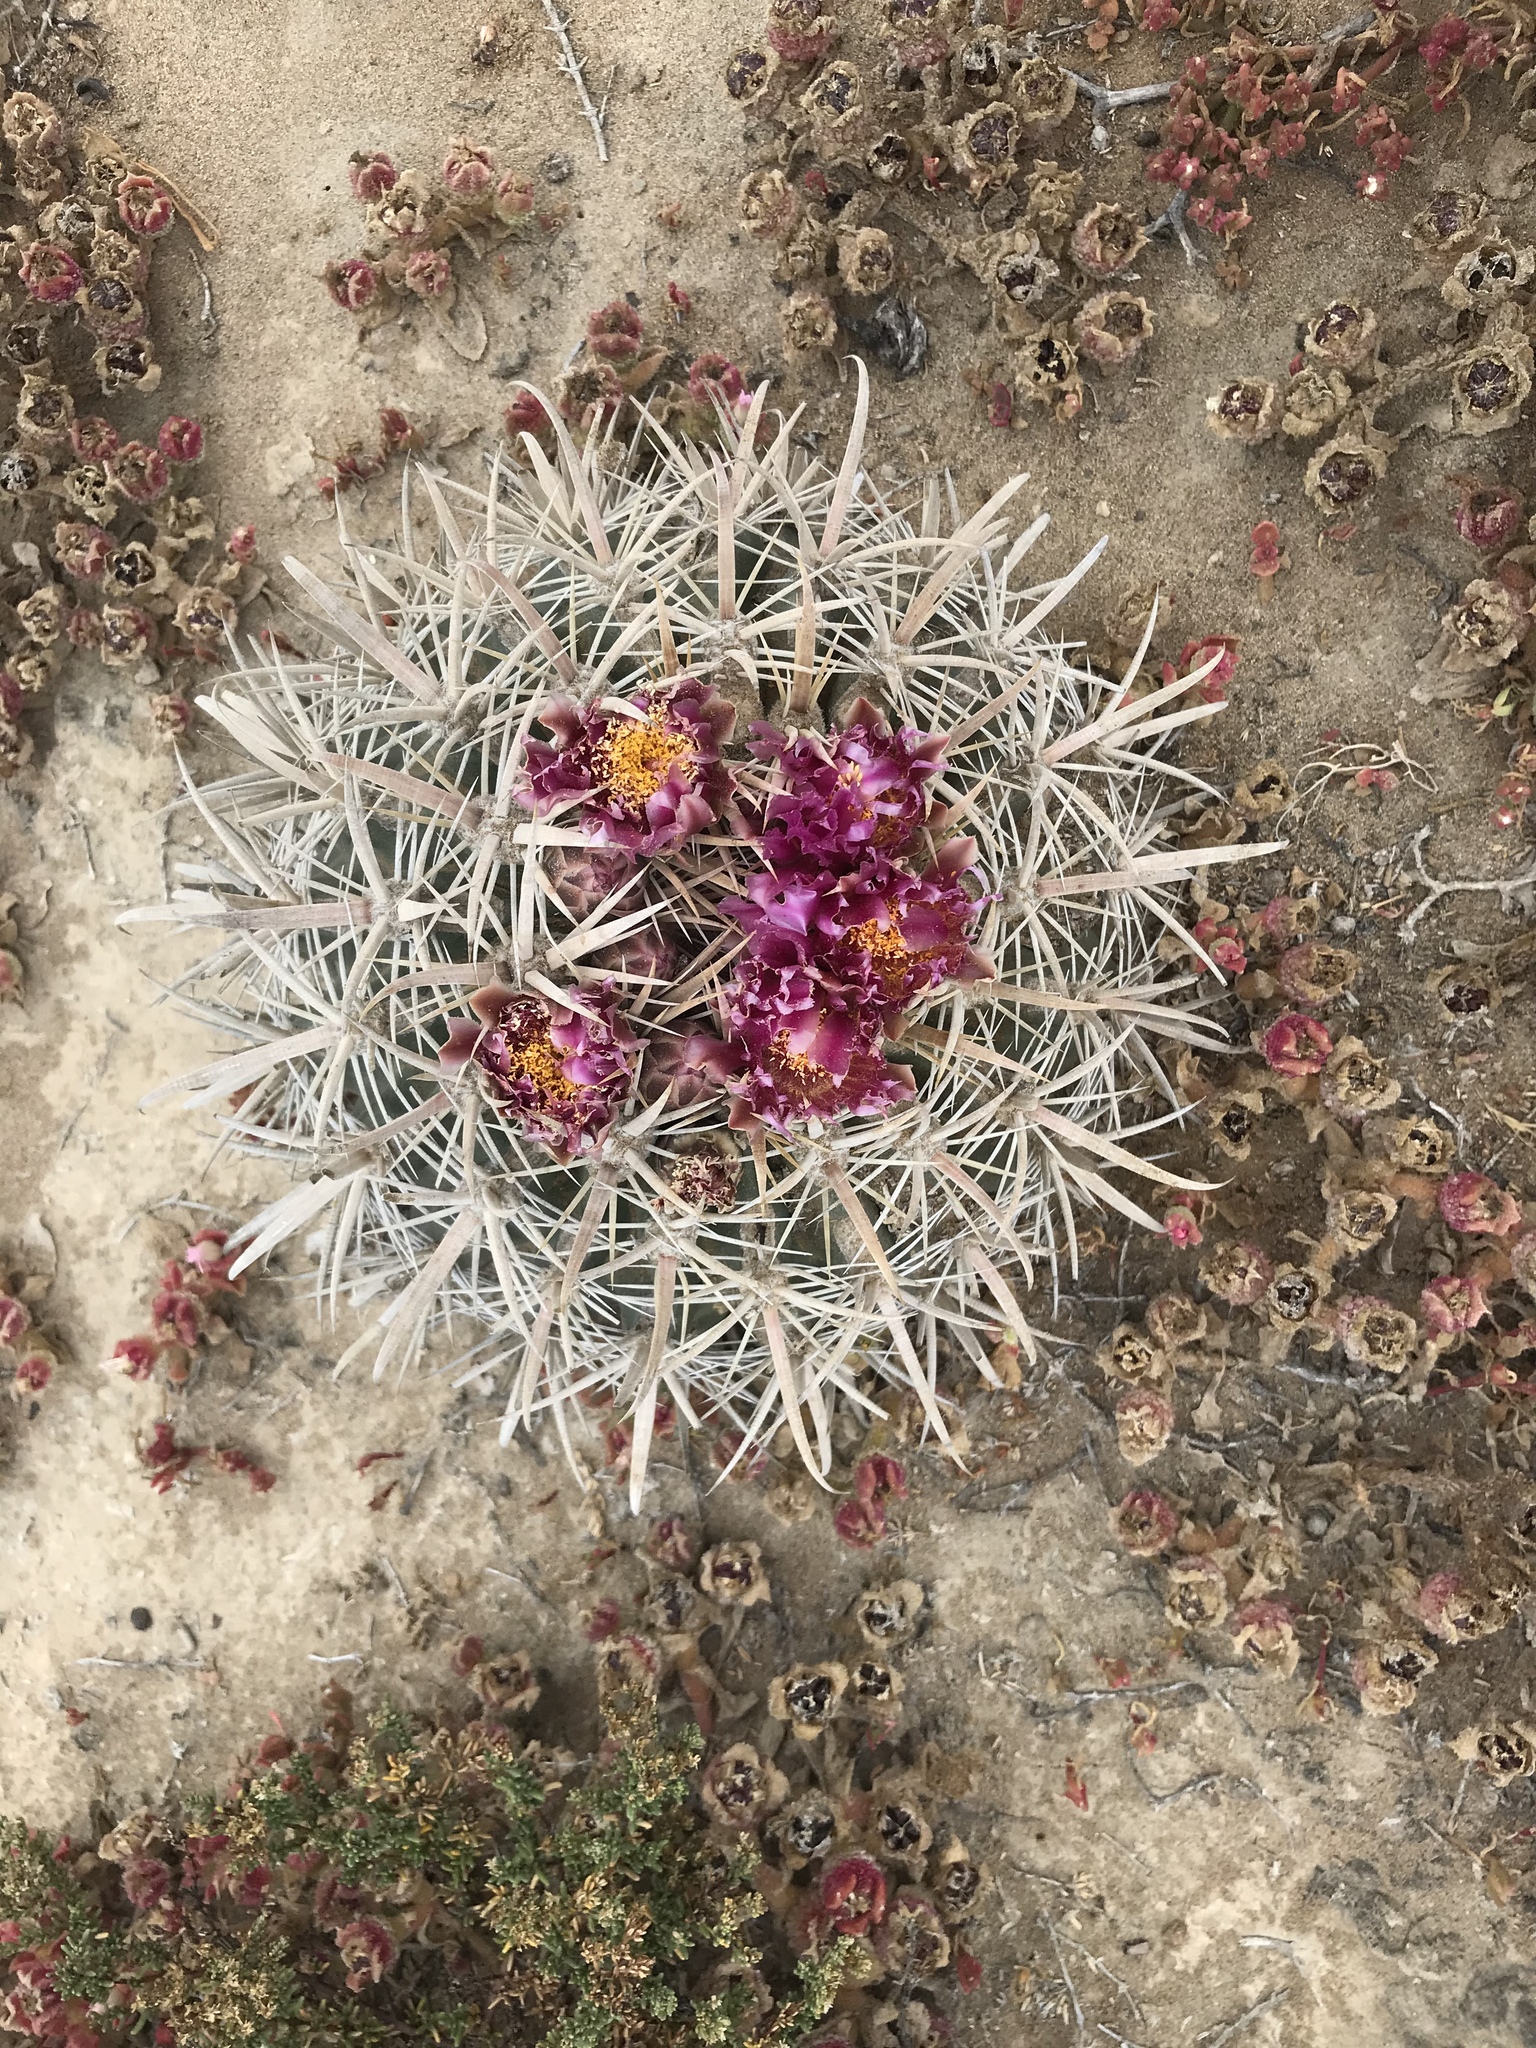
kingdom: Plantae
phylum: Tracheophyta
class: Magnoliopsida
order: Caryophyllales
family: Cactaceae
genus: Ferocactus
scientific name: Ferocactus fordii
